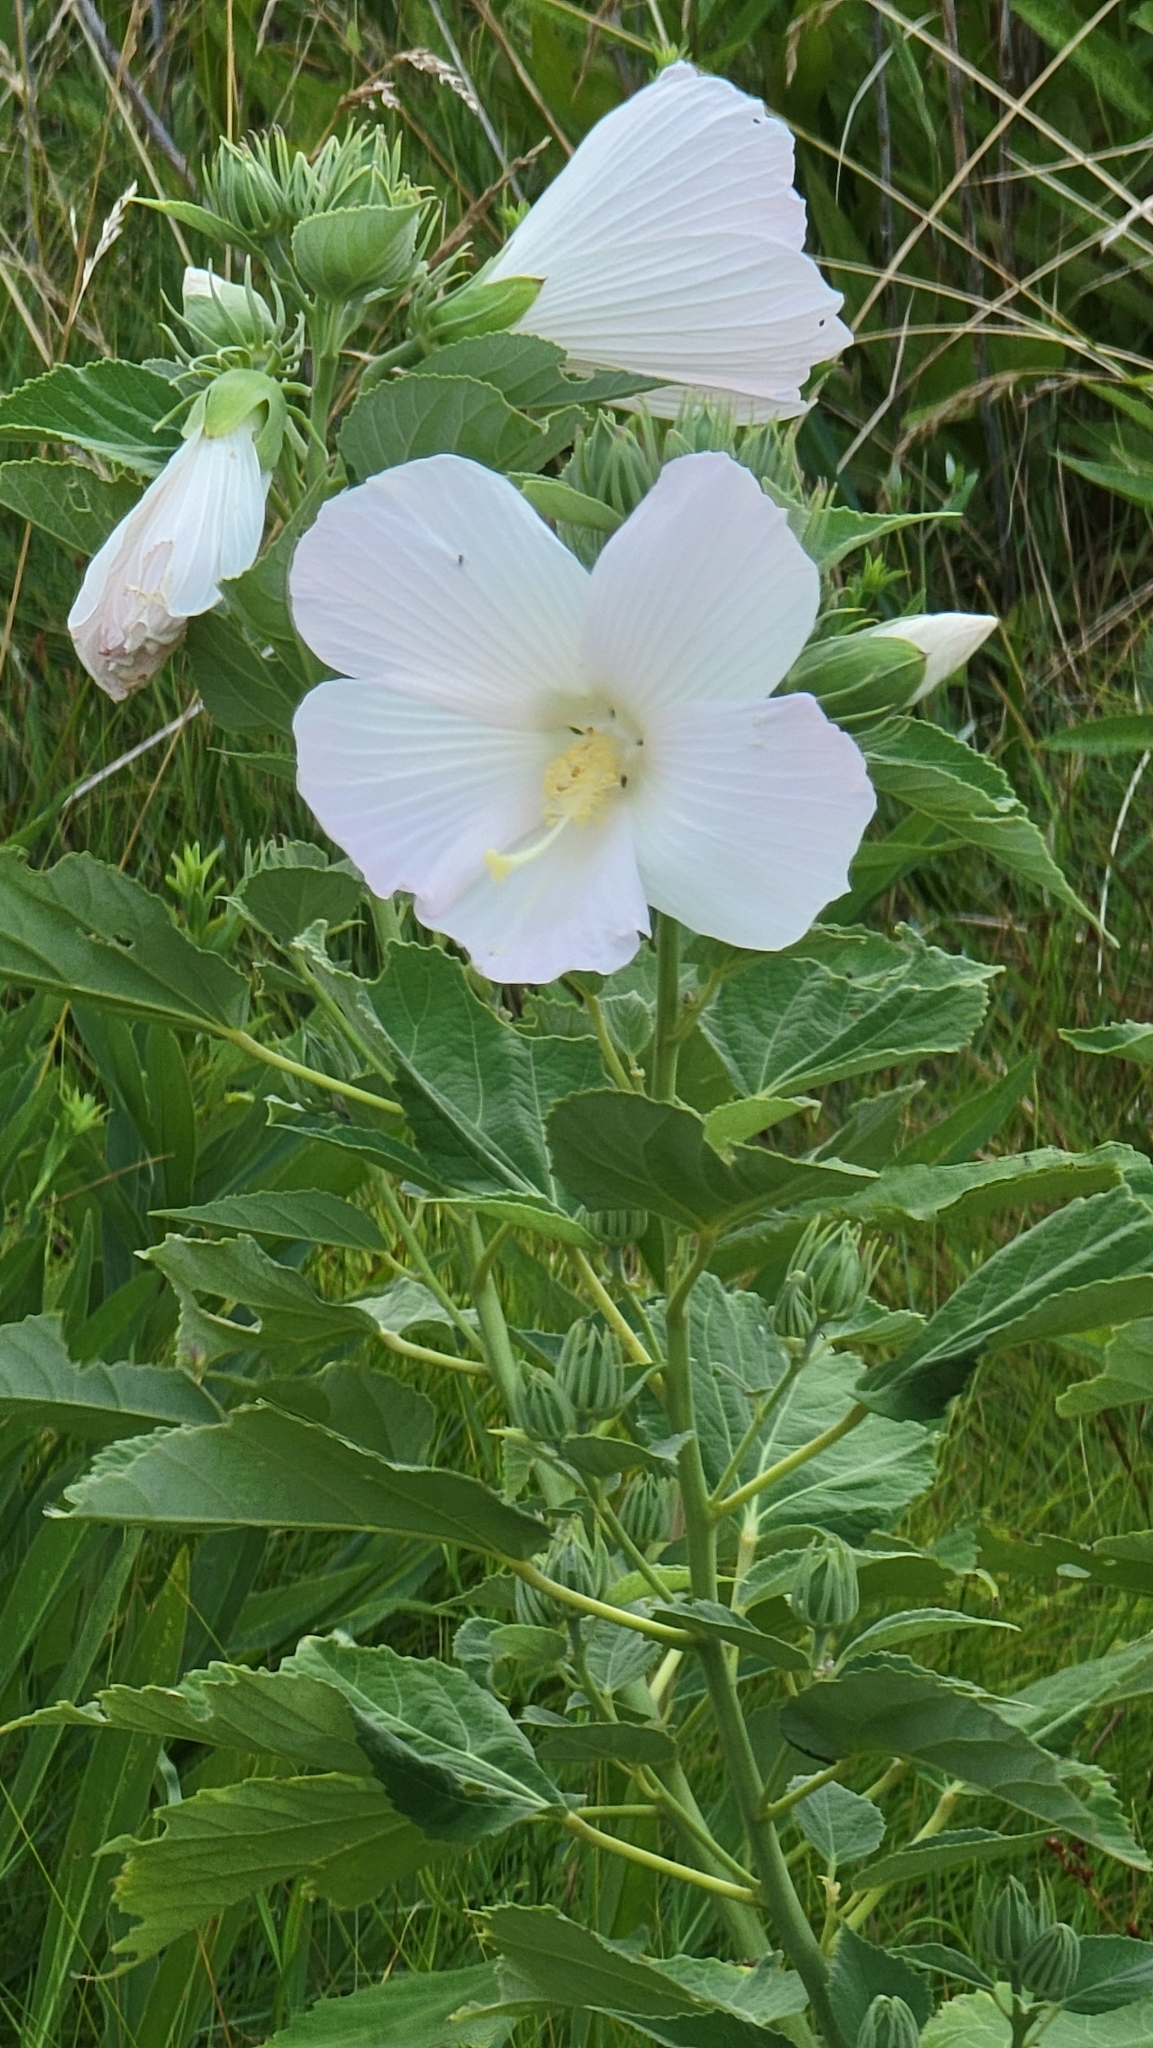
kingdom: Plantae
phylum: Tracheophyta
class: Magnoliopsida
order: Malvales
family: Malvaceae
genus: Hibiscus
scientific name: Hibiscus moscheutos
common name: Common rose-mallow
